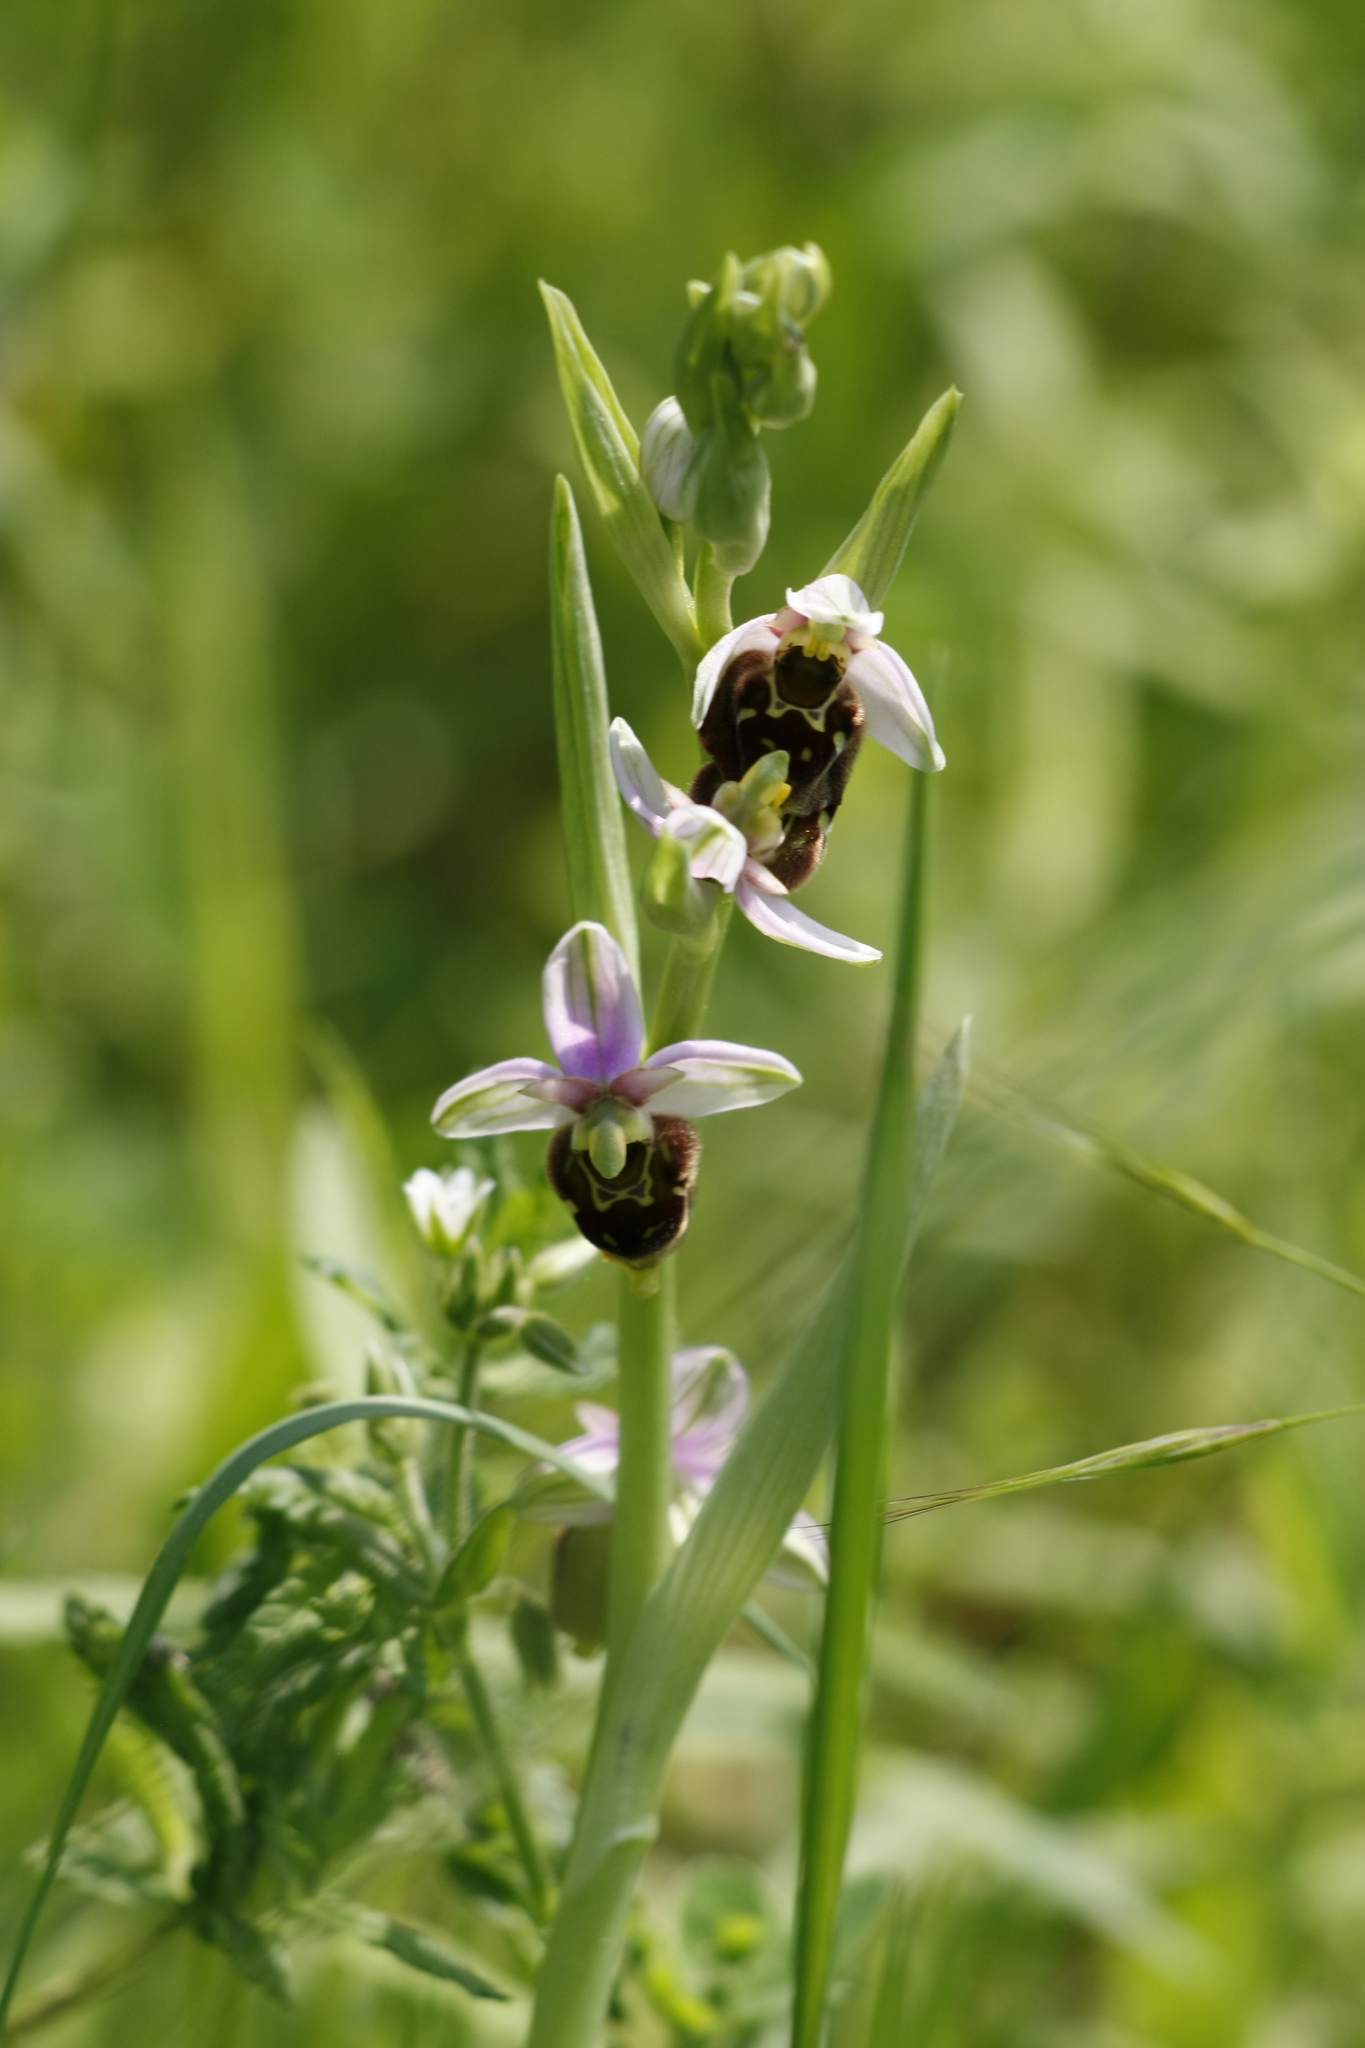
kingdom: Plantae
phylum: Tracheophyta
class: Liliopsida
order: Asparagales
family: Orchidaceae
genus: Ophrys
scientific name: Ophrys holosericea
